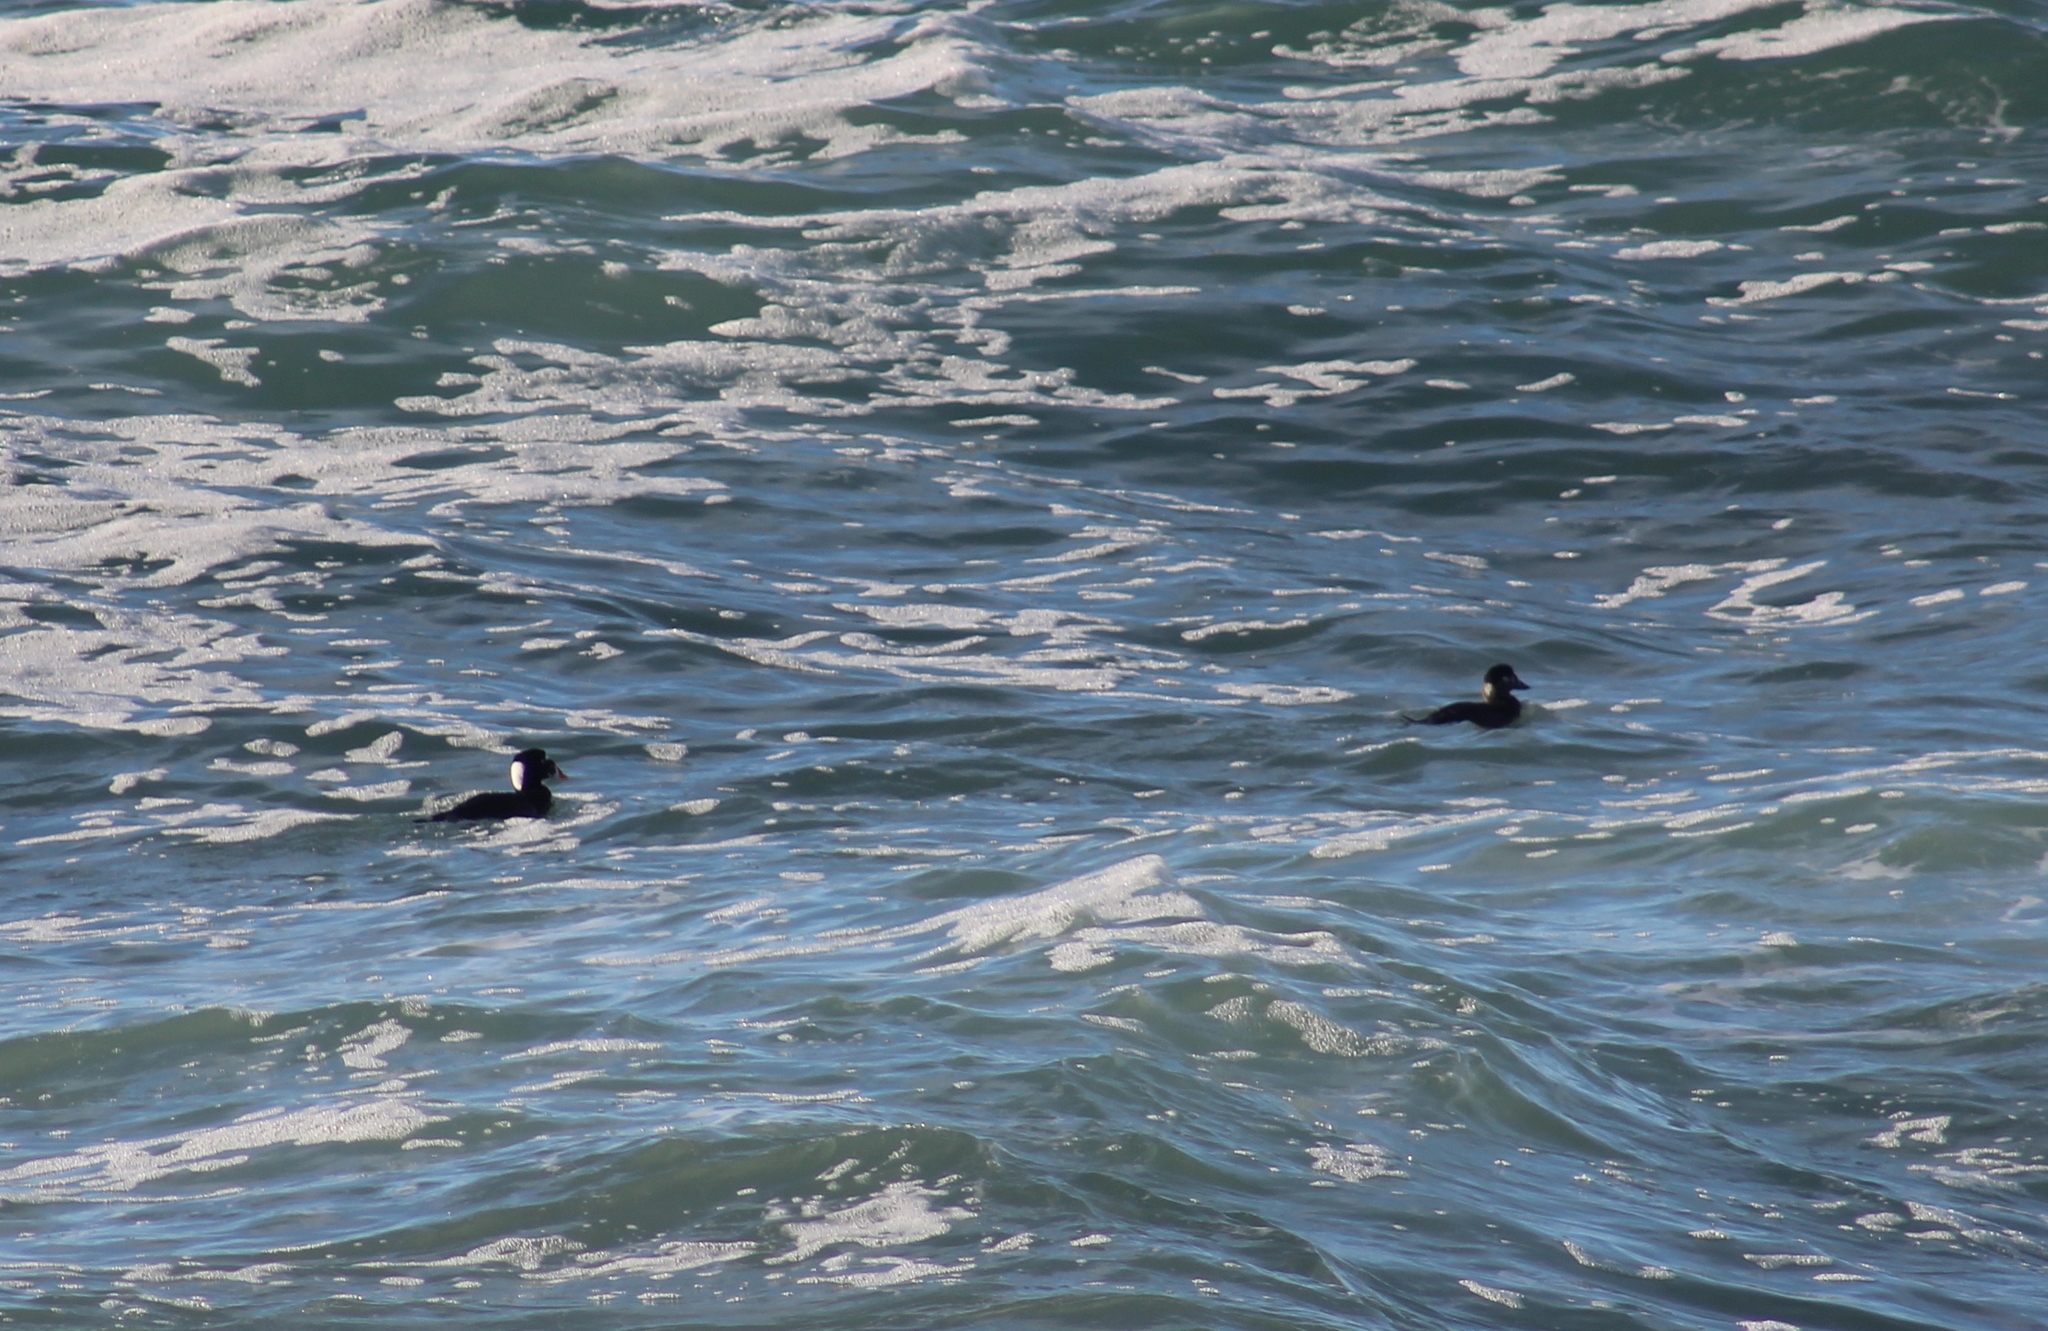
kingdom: Animalia
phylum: Chordata
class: Aves
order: Anseriformes
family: Anatidae
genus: Melanitta
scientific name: Melanitta perspicillata
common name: Surf scoter
